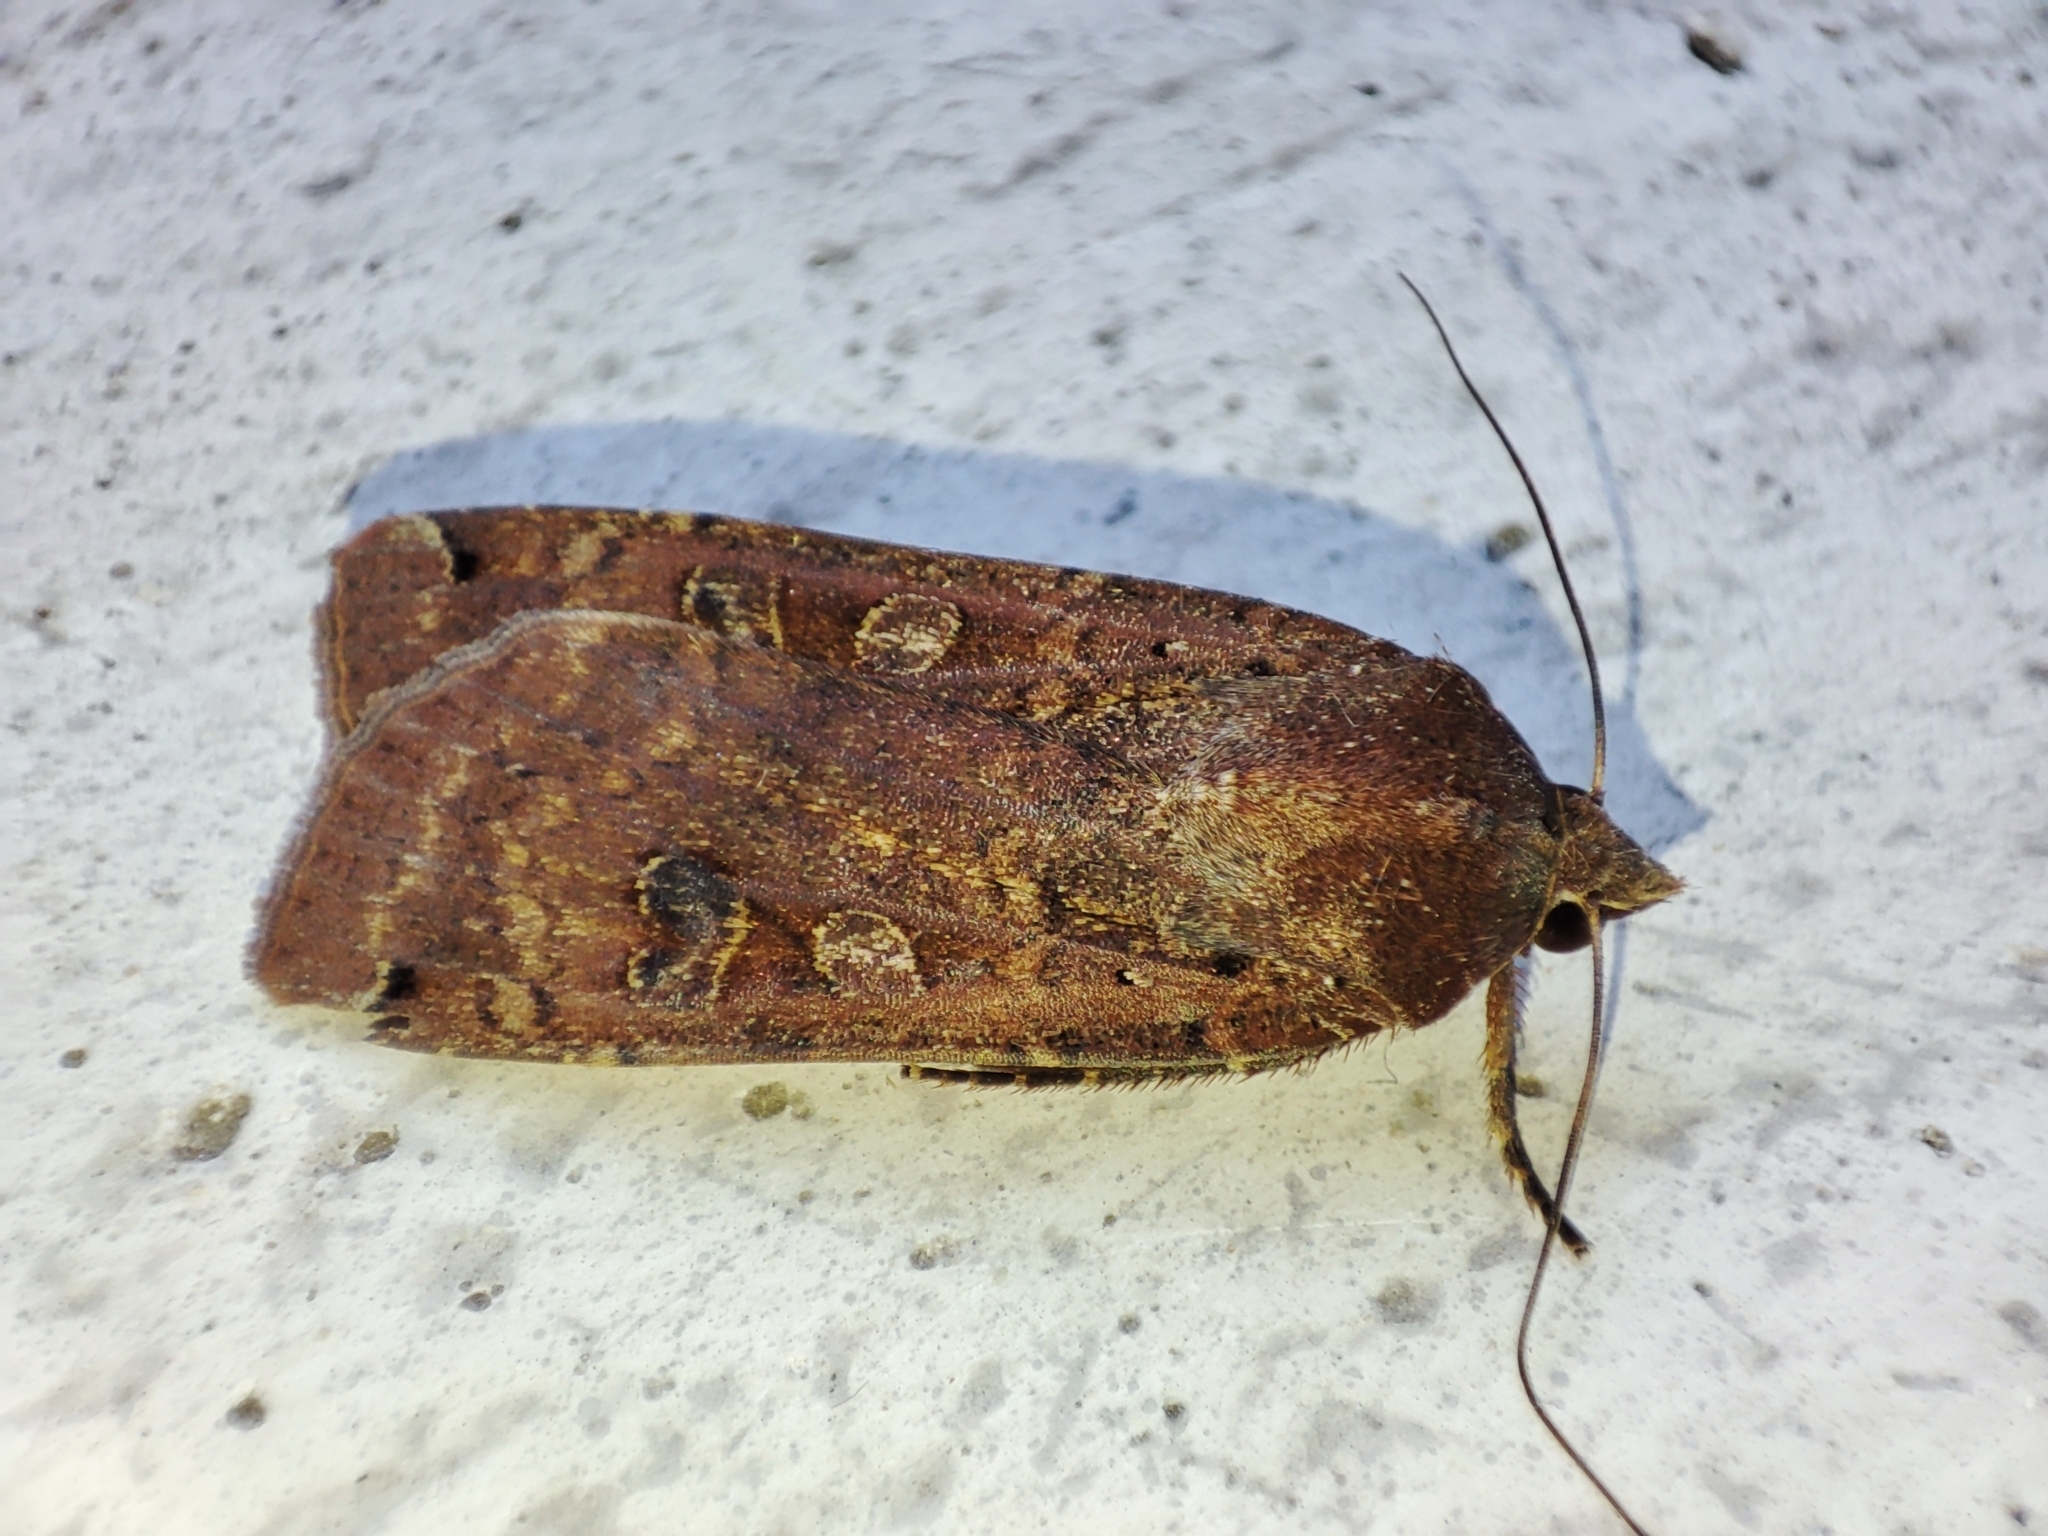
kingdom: Animalia
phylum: Arthropoda
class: Insecta
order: Lepidoptera
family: Noctuidae
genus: Noctua
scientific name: Noctua pronuba
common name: Large yellow underwing
